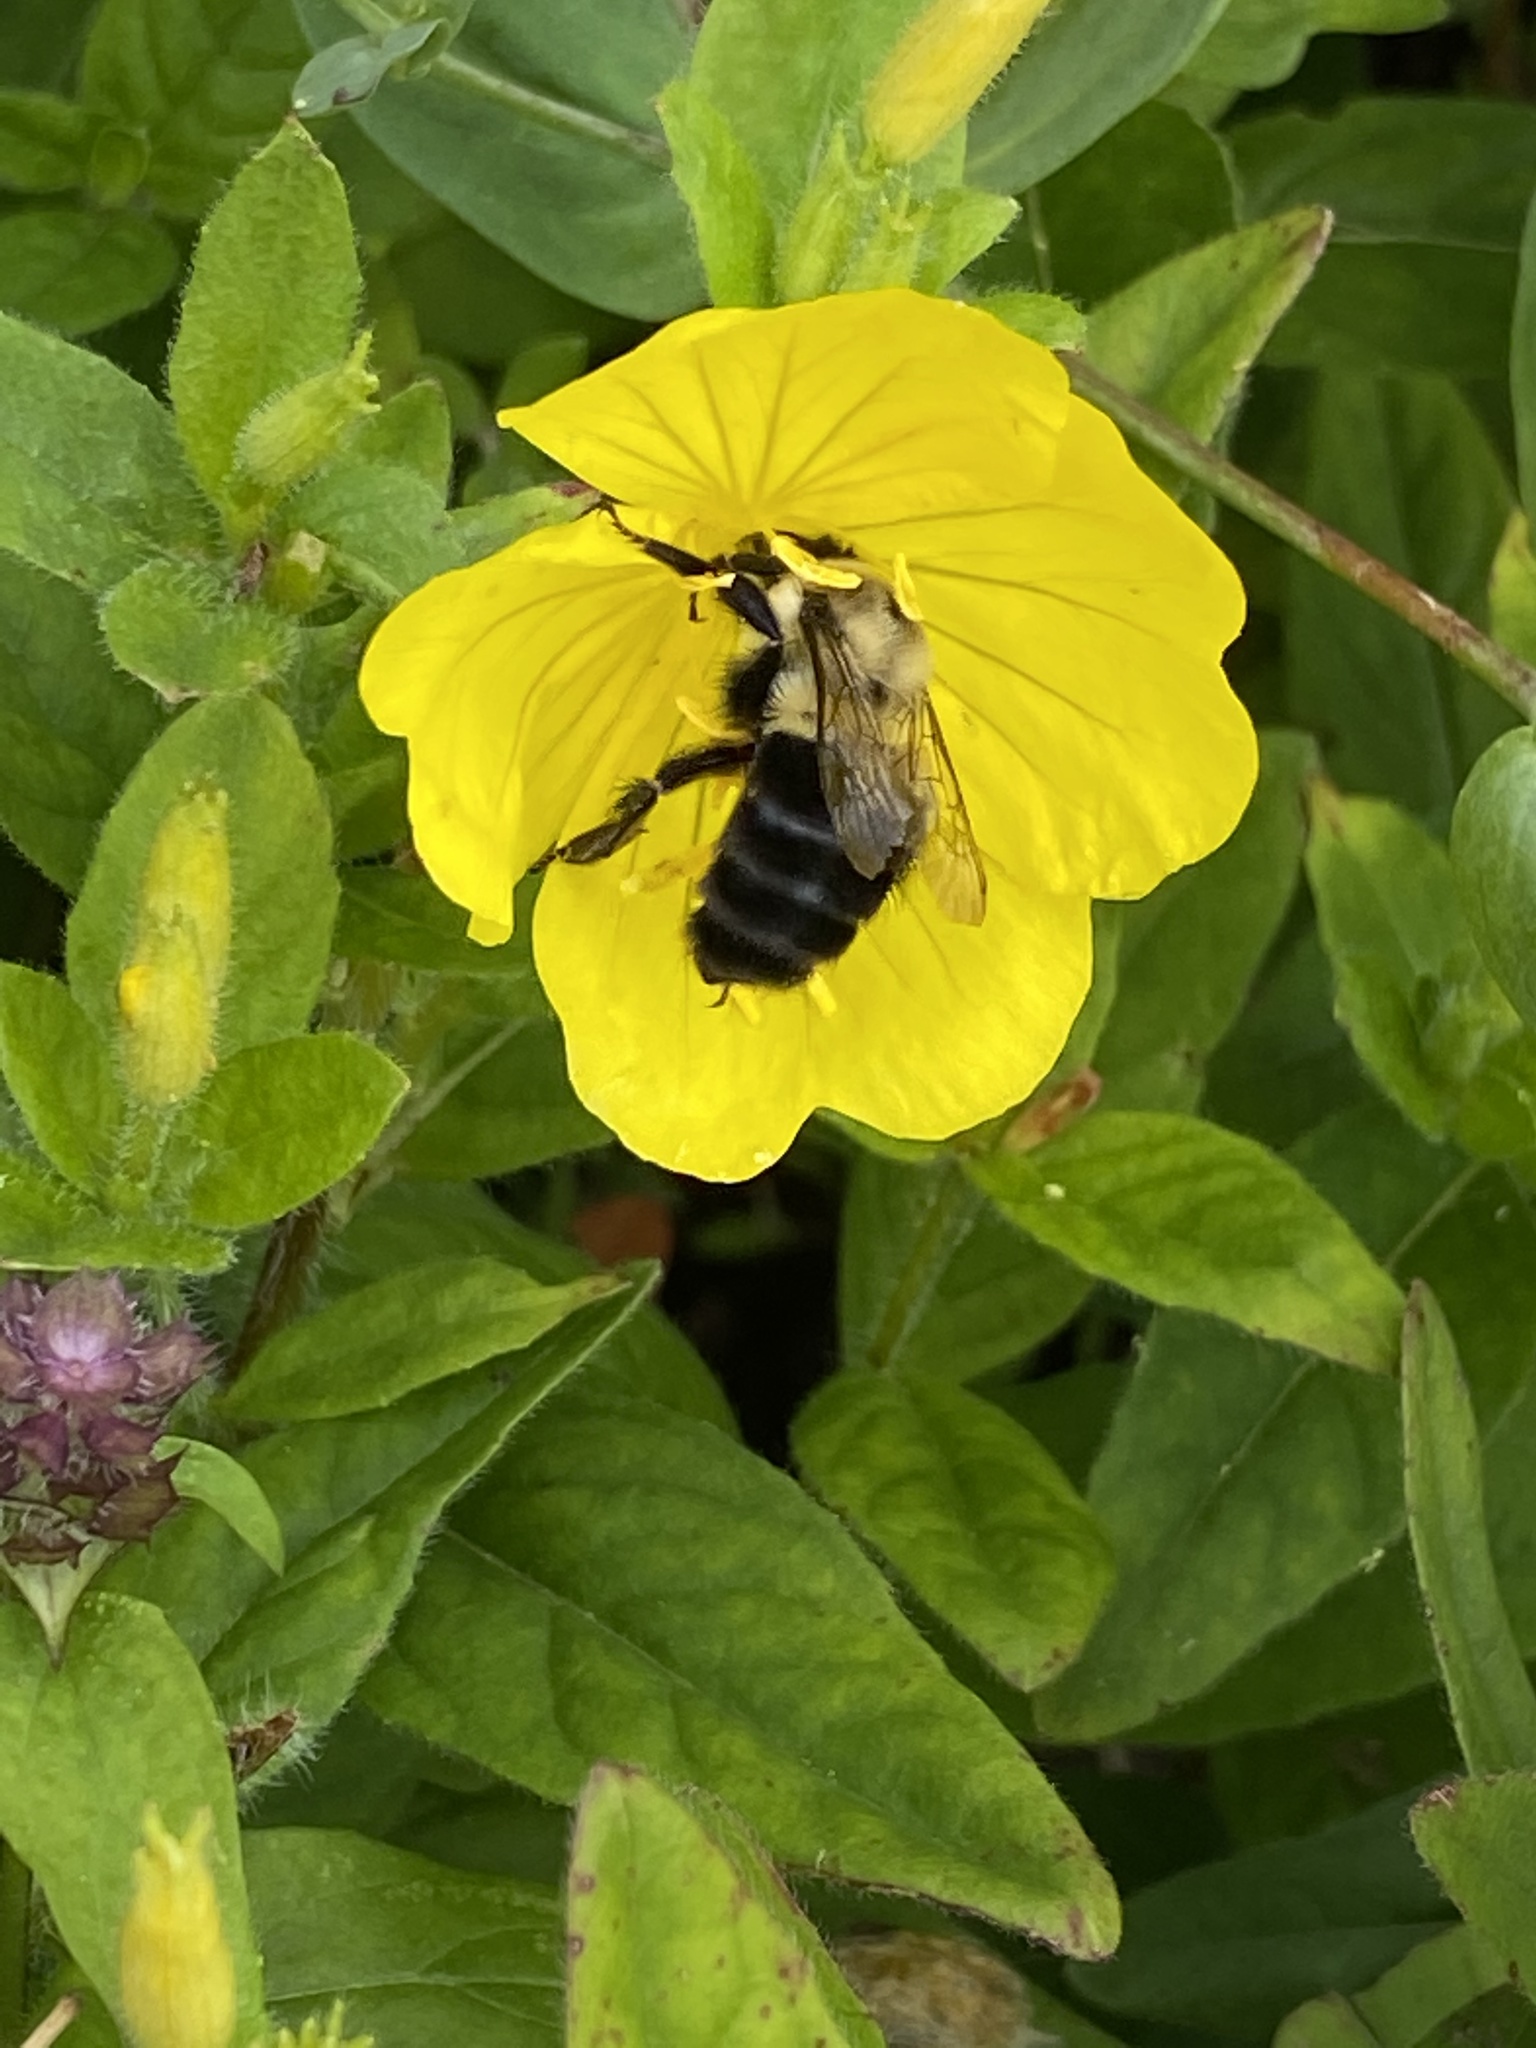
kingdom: Animalia
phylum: Arthropoda
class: Insecta
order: Hymenoptera
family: Apidae
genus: Bombus
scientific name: Bombus impatiens
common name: Common eastern bumble bee
